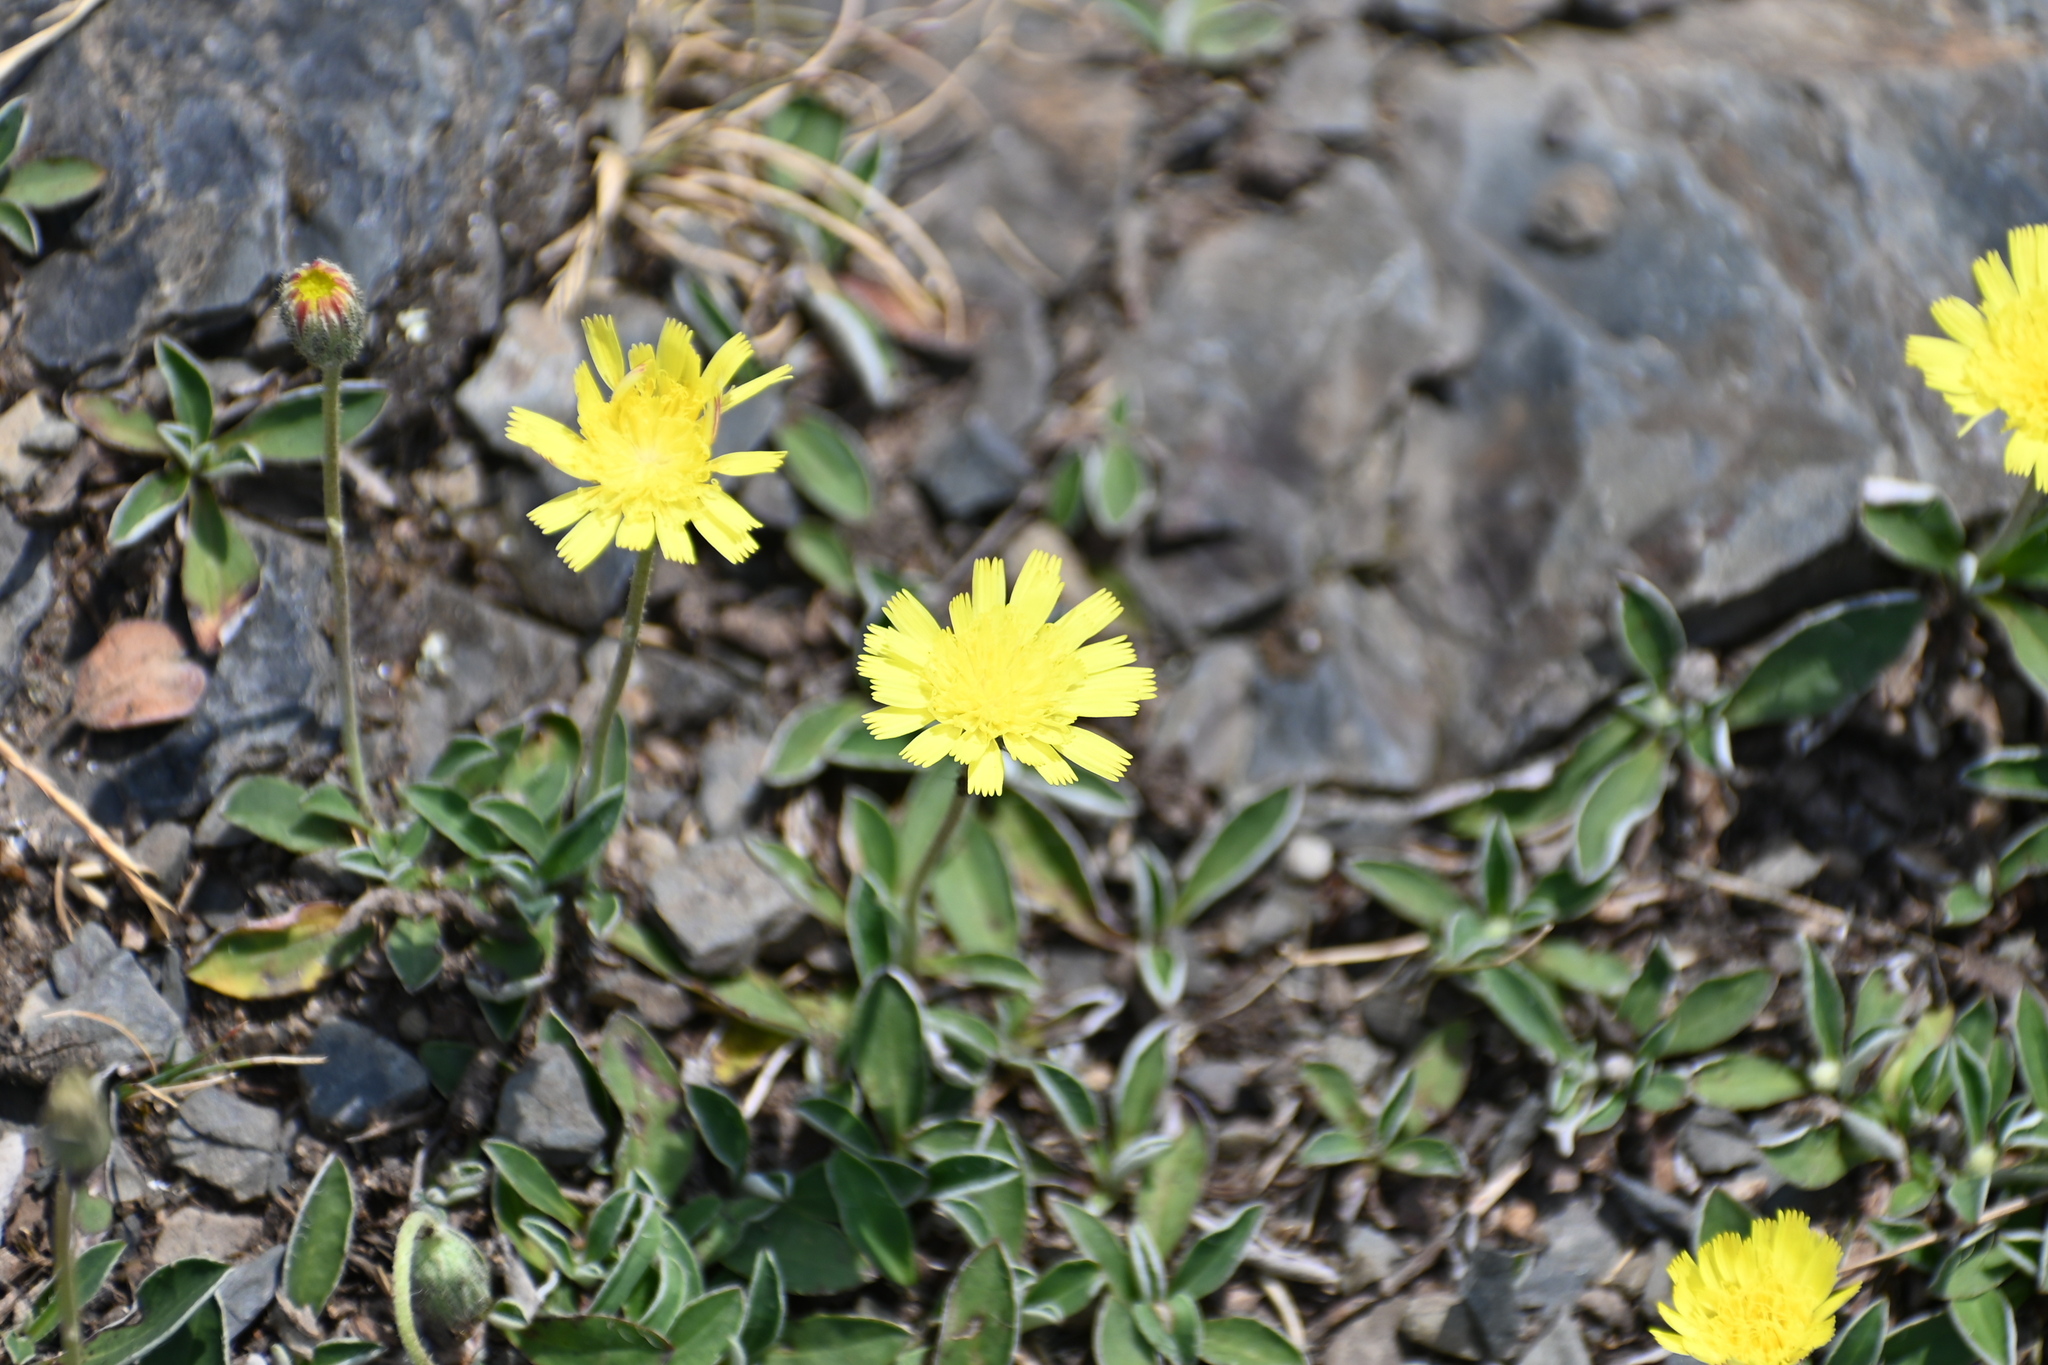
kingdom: Plantae
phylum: Tracheophyta
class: Magnoliopsida
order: Asterales
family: Asteraceae
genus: Pilosella
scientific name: Pilosella officinarum
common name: Mouse-ear hawkweed
